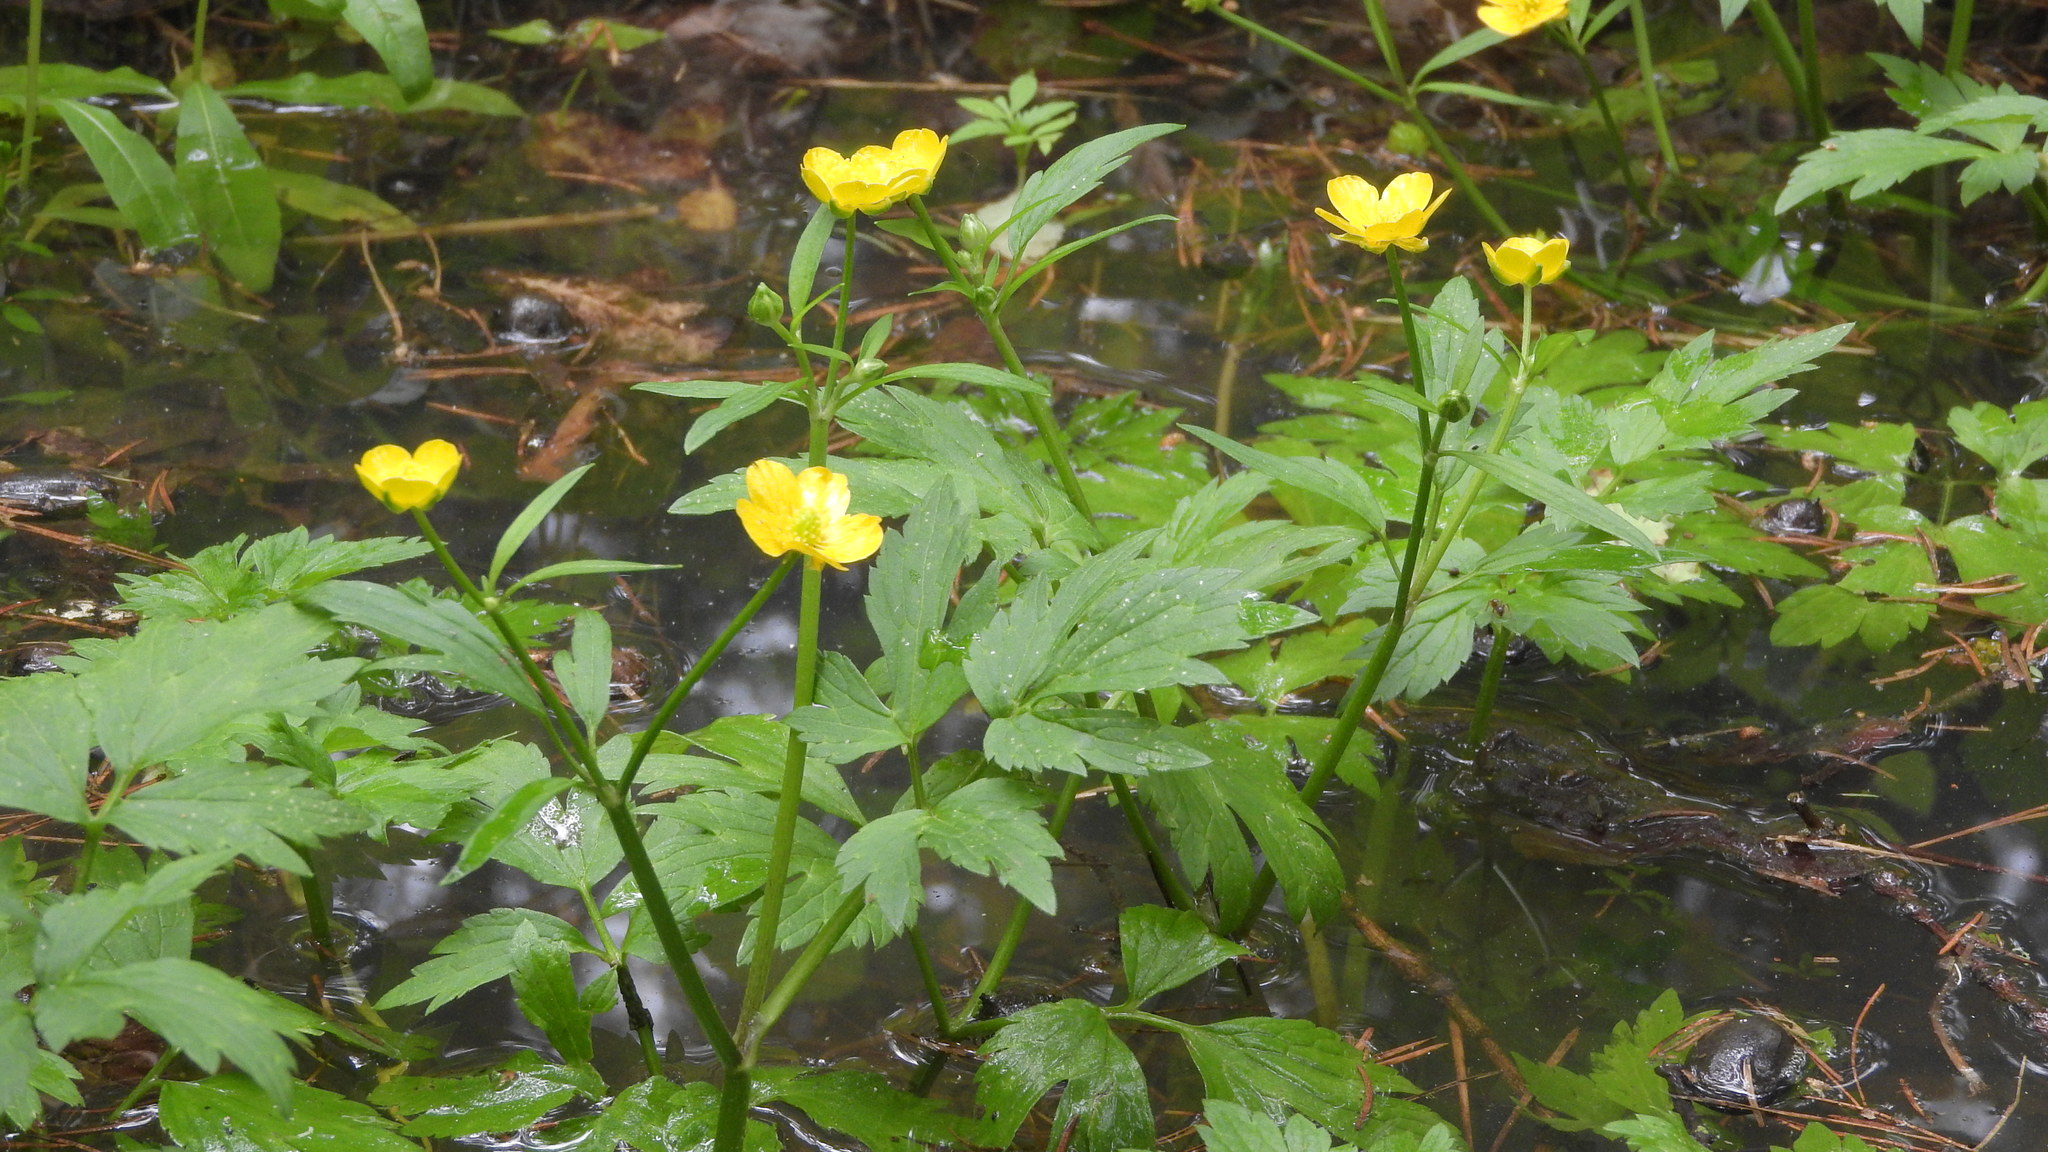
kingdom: Plantae
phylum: Tracheophyta
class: Magnoliopsida
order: Ranunculales
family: Ranunculaceae
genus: Ranunculus
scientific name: Ranunculus repens
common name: Creeping buttercup
